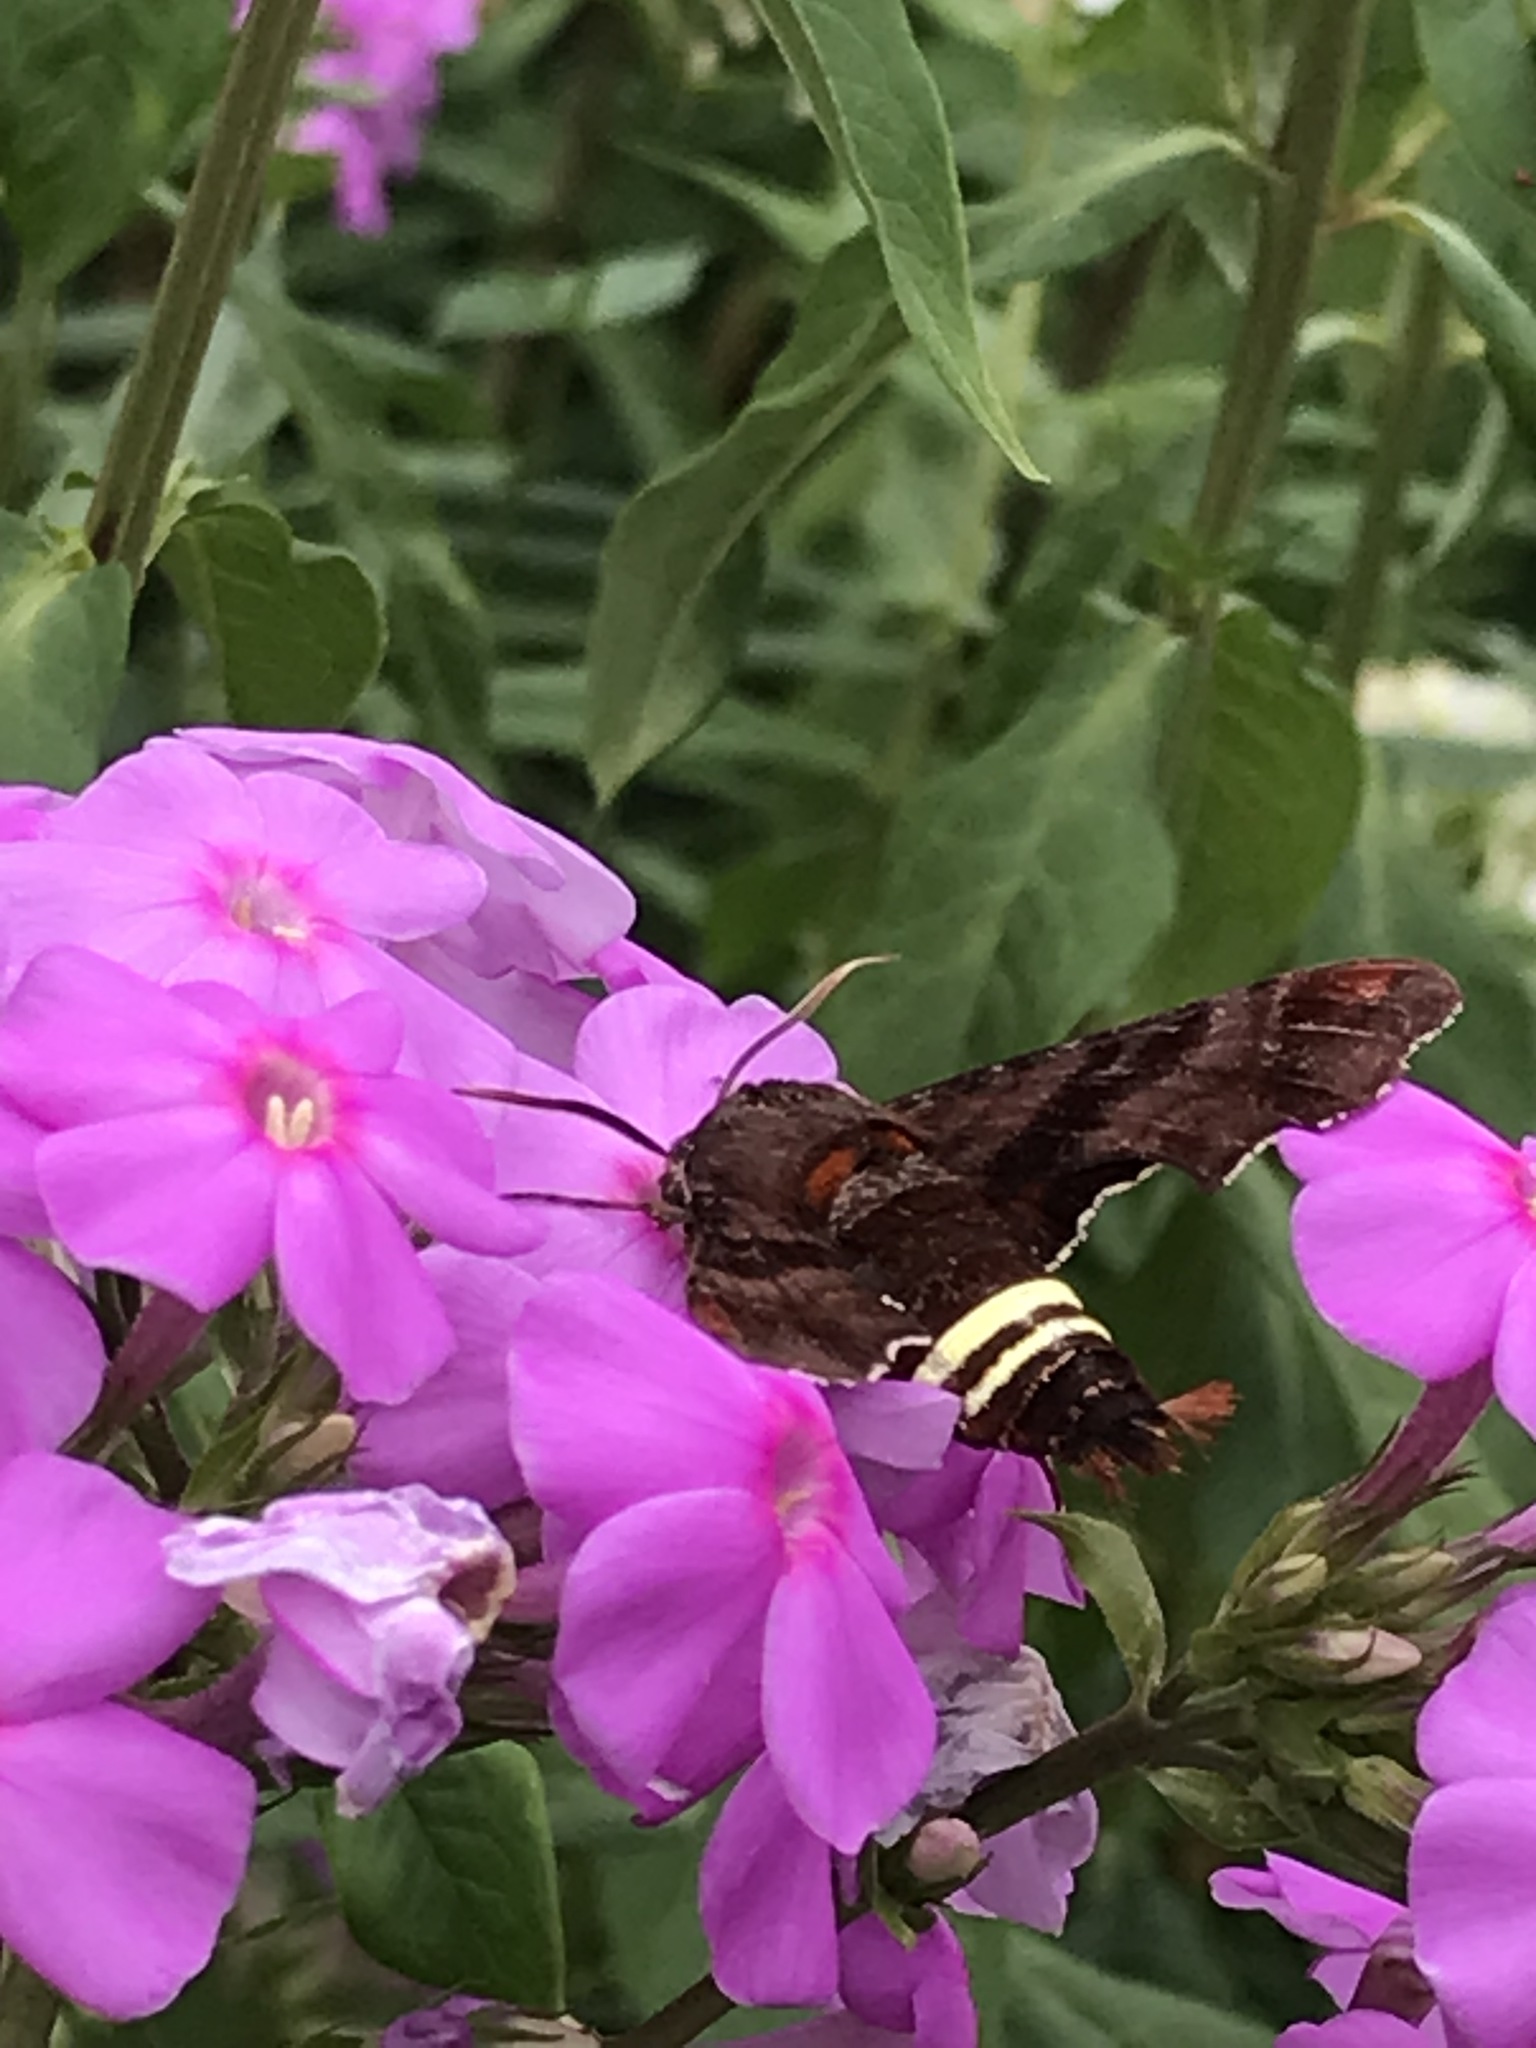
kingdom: Animalia
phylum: Arthropoda
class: Insecta
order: Lepidoptera
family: Sphingidae
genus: Amphion
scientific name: Amphion floridensis
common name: Nessus sphinx
